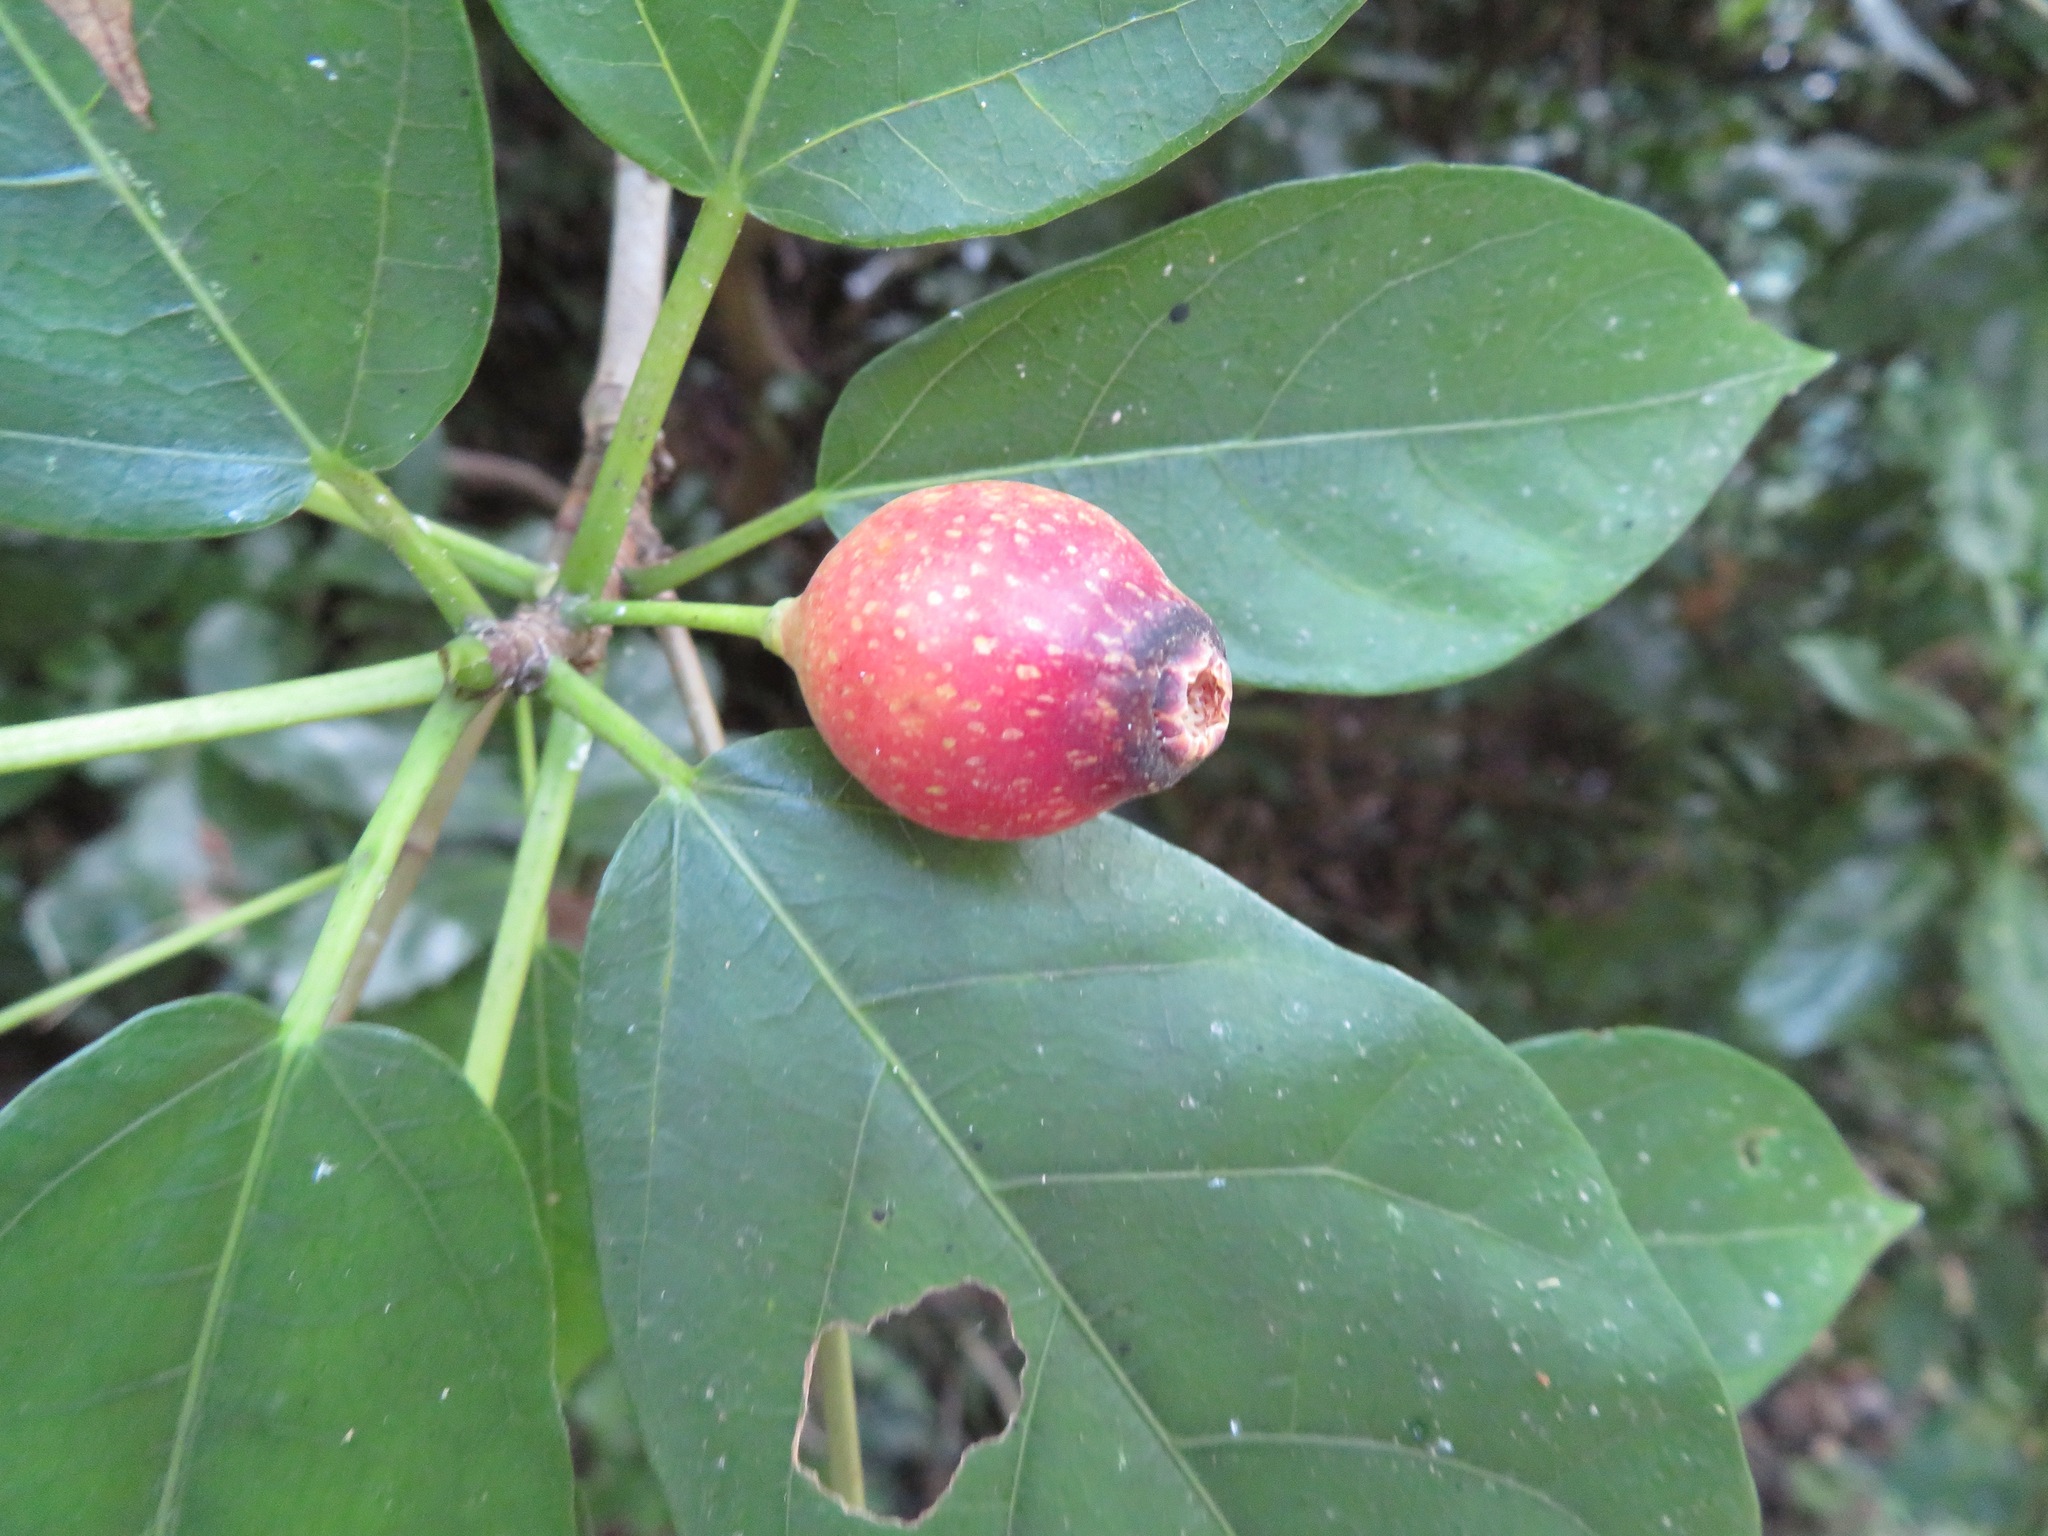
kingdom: Plantae
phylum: Tracheophyta
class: Magnoliopsida
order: Rosales
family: Moraceae
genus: Ficus
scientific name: Ficus erecta
